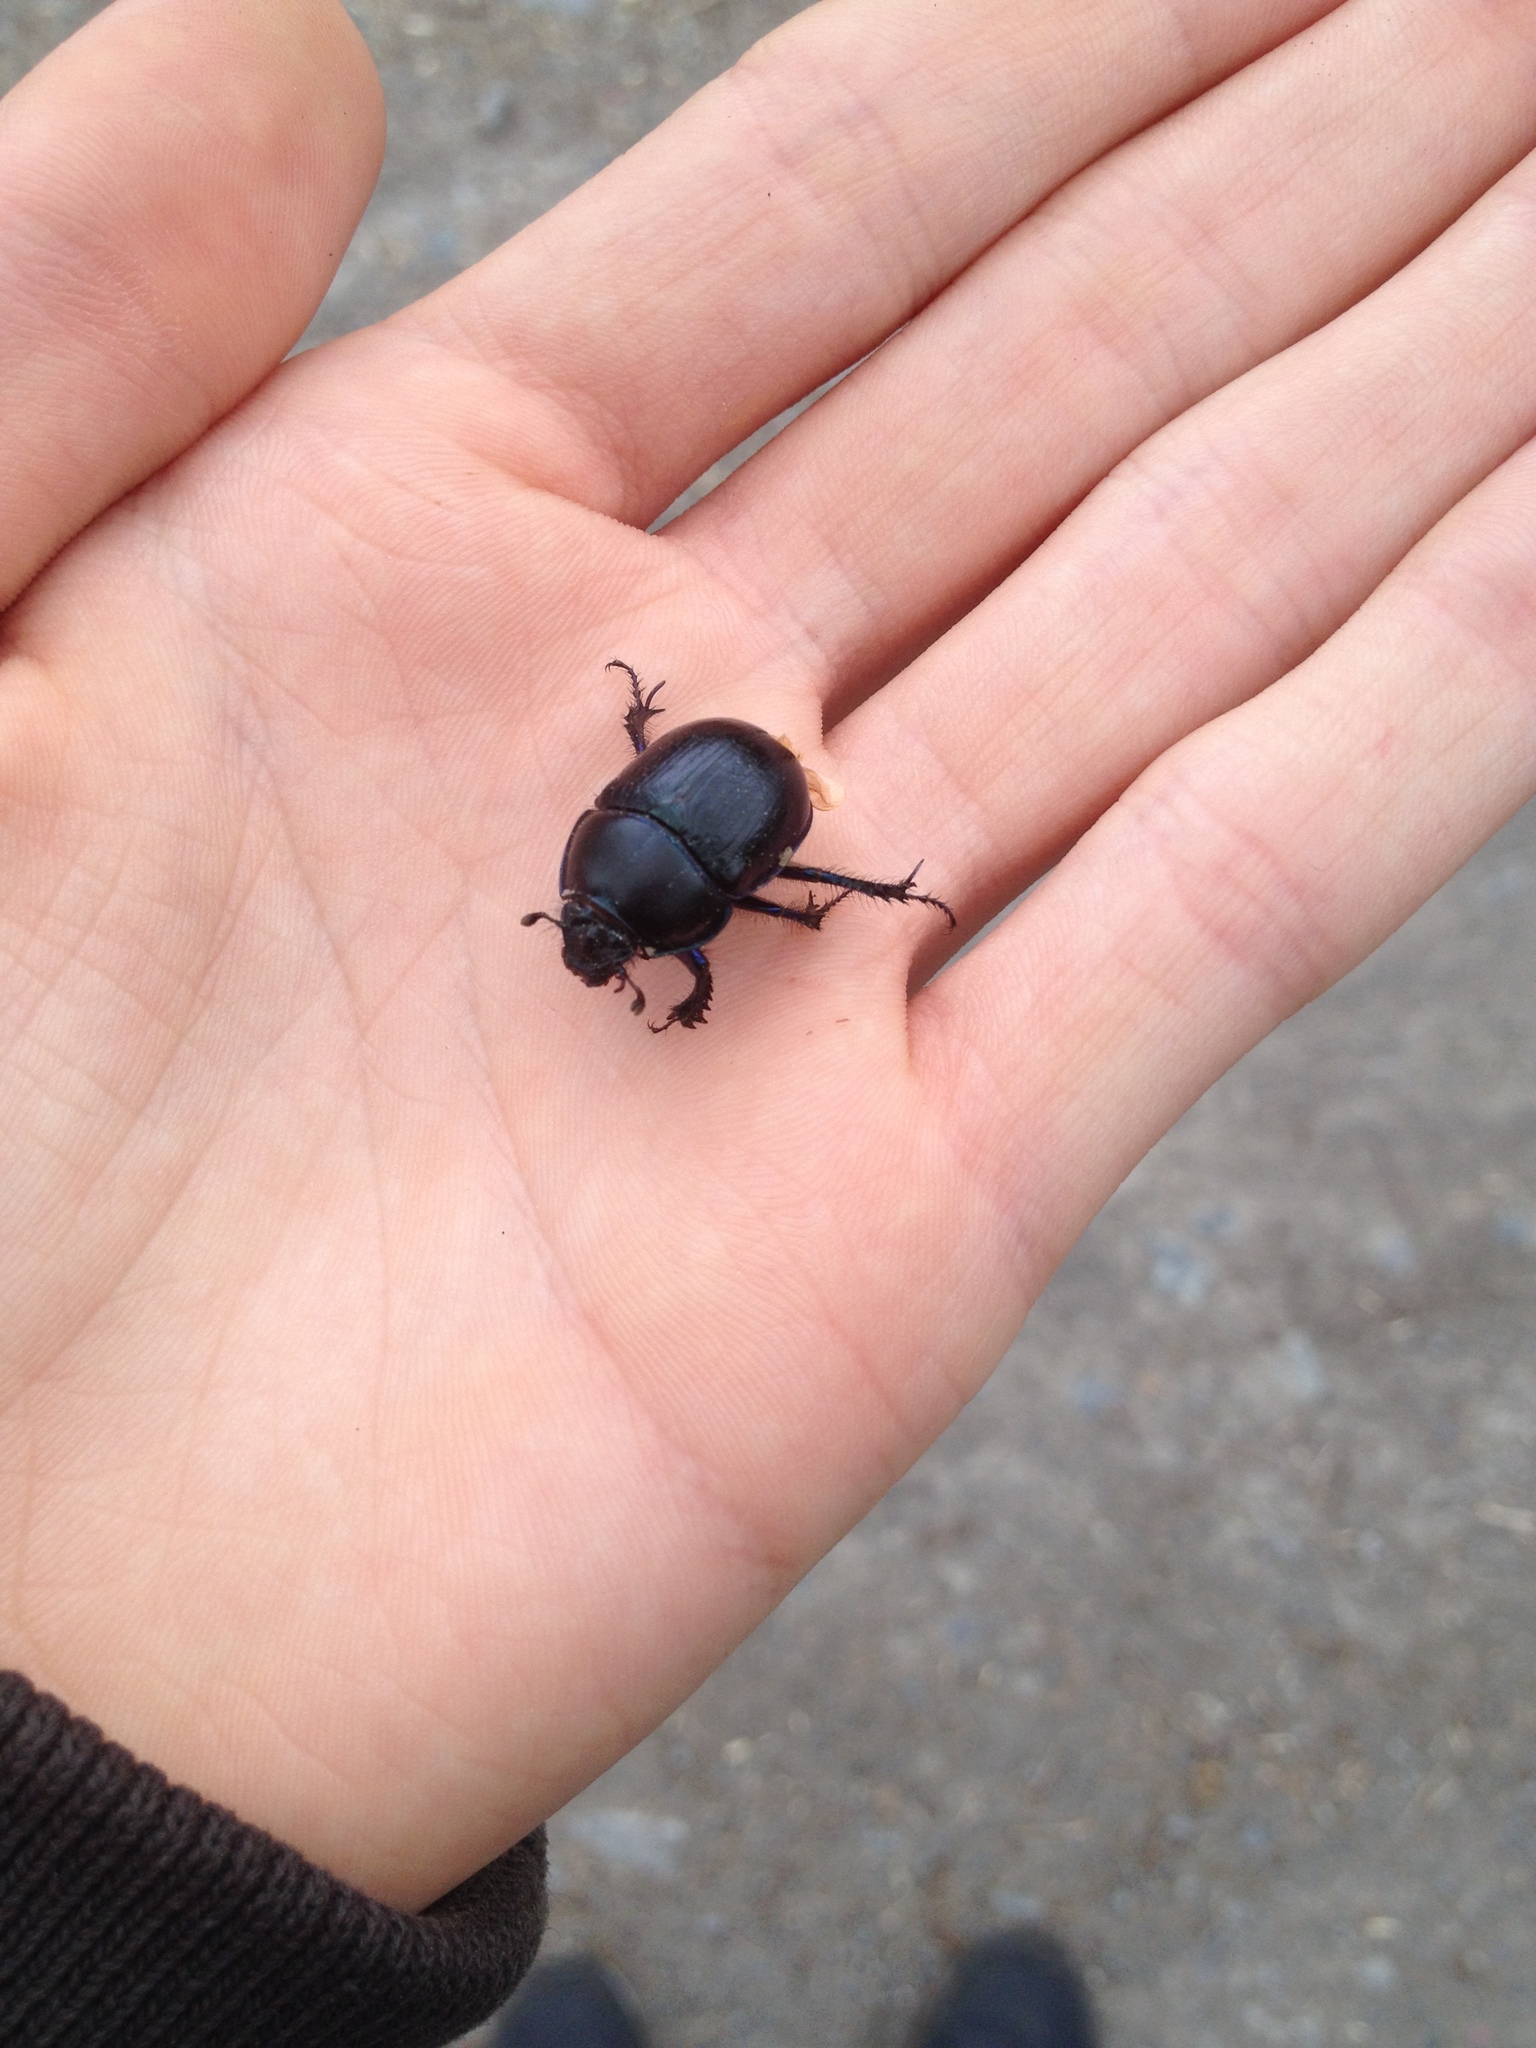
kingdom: Animalia
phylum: Arthropoda
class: Insecta
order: Coleoptera
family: Geotrupidae
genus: Anoplotrupes
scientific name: Anoplotrupes stercorosus
